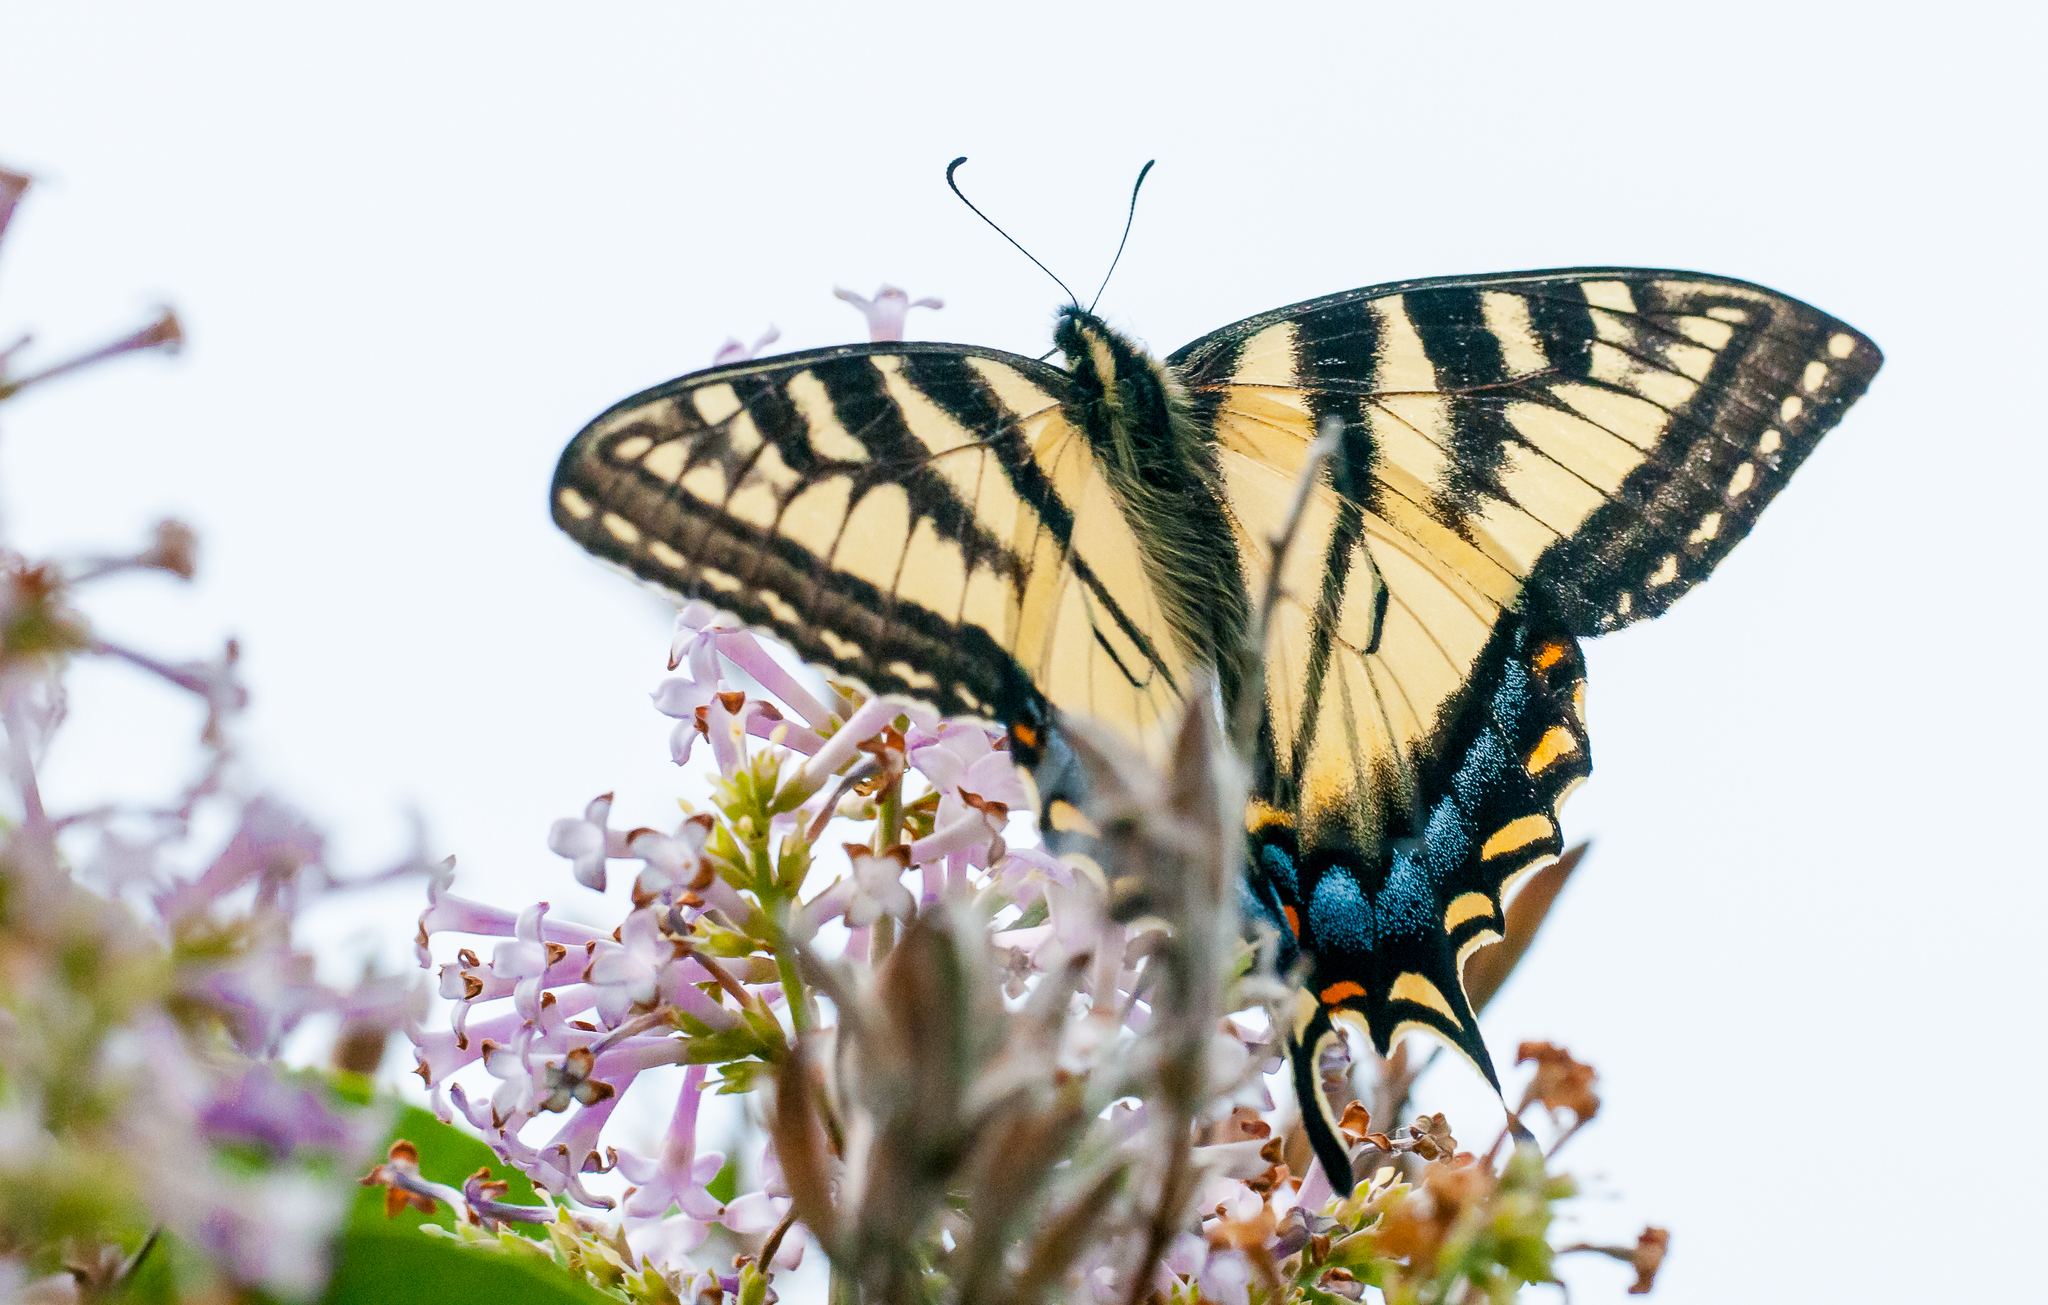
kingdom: Animalia
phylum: Arthropoda
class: Insecta
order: Lepidoptera
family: Papilionidae
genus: Papilio
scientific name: Papilio canadensis
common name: Canadian tiger swallowtail
